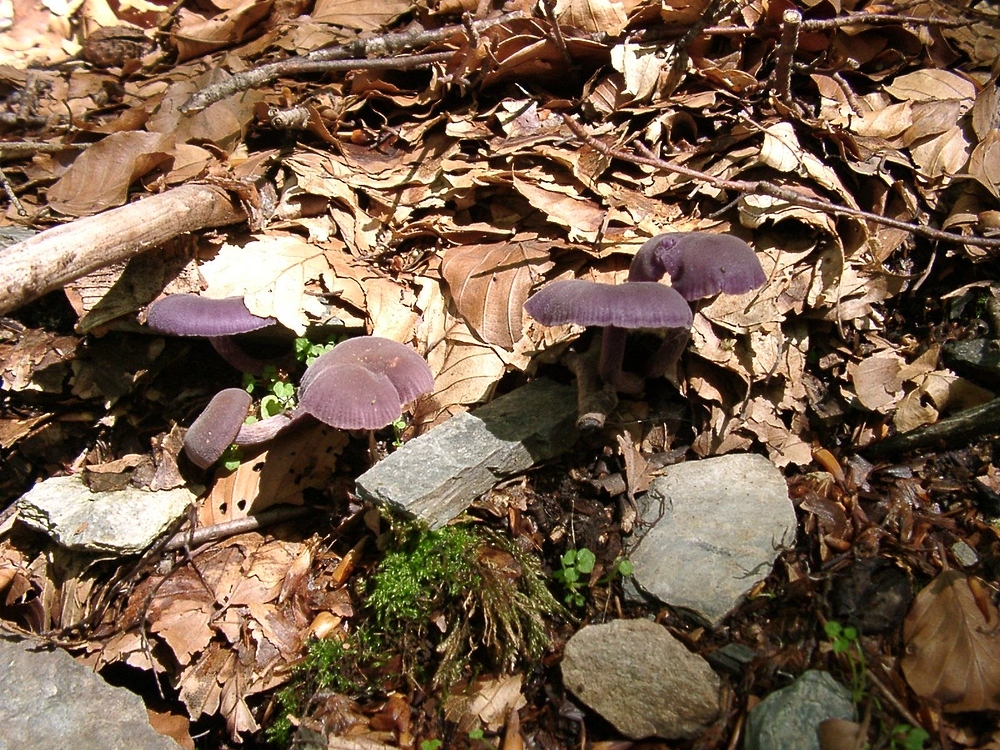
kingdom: Fungi
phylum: Basidiomycota
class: Agaricomycetes
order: Agaricales
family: Hydnangiaceae
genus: Laccaria
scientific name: Laccaria amethystina
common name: Amethyst deceiver
